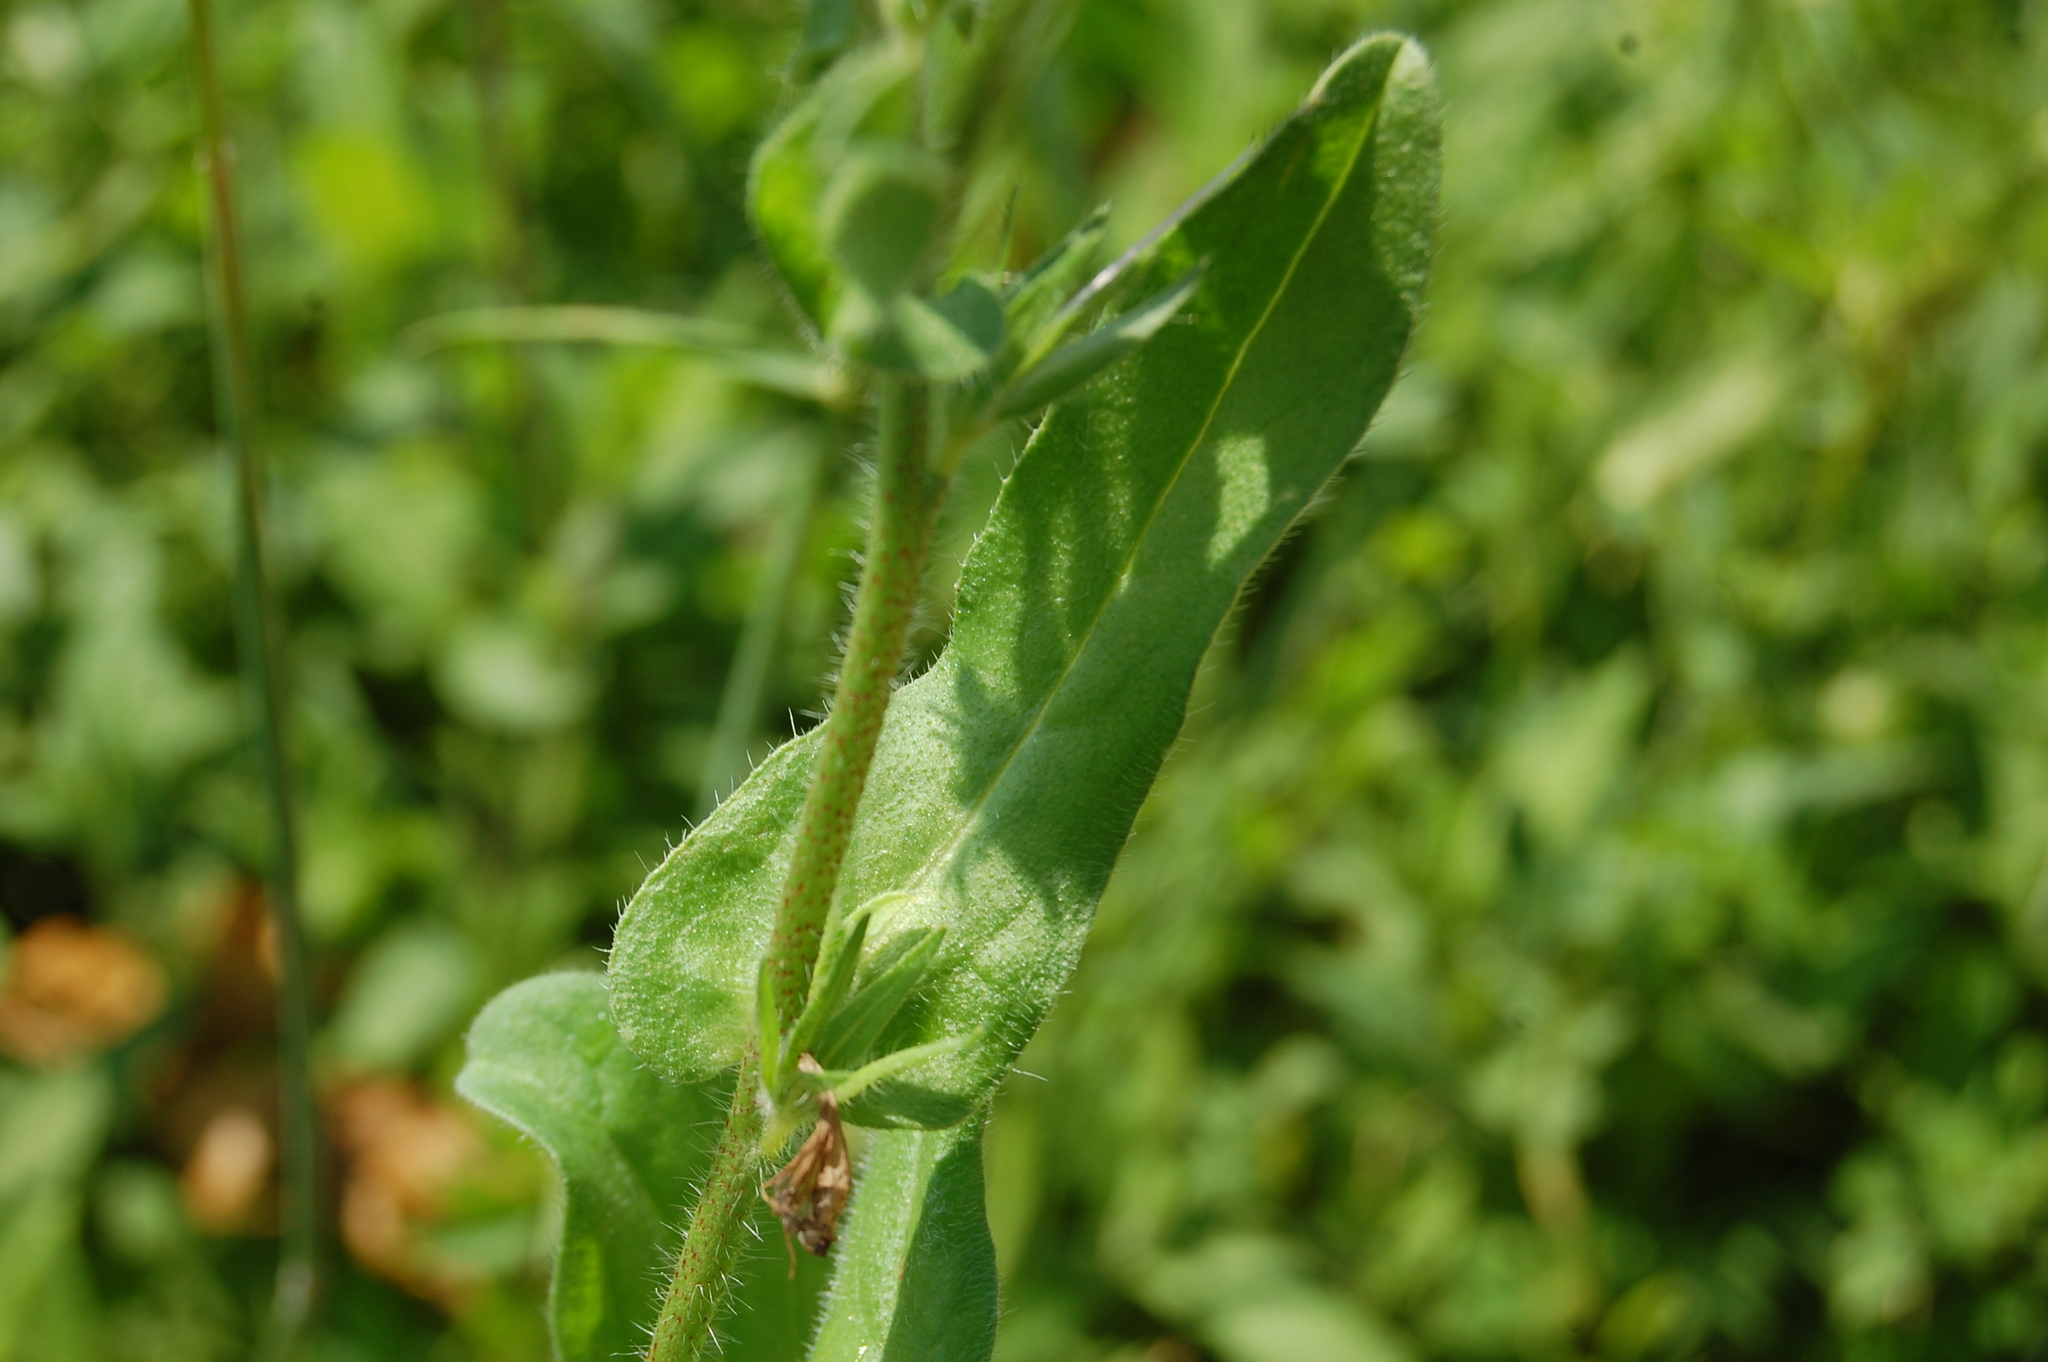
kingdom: Plantae
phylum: Tracheophyta
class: Magnoliopsida
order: Boraginales
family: Boraginaceae
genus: Echium
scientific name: Echium plantagineum
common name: Purple viper's-bugloss
